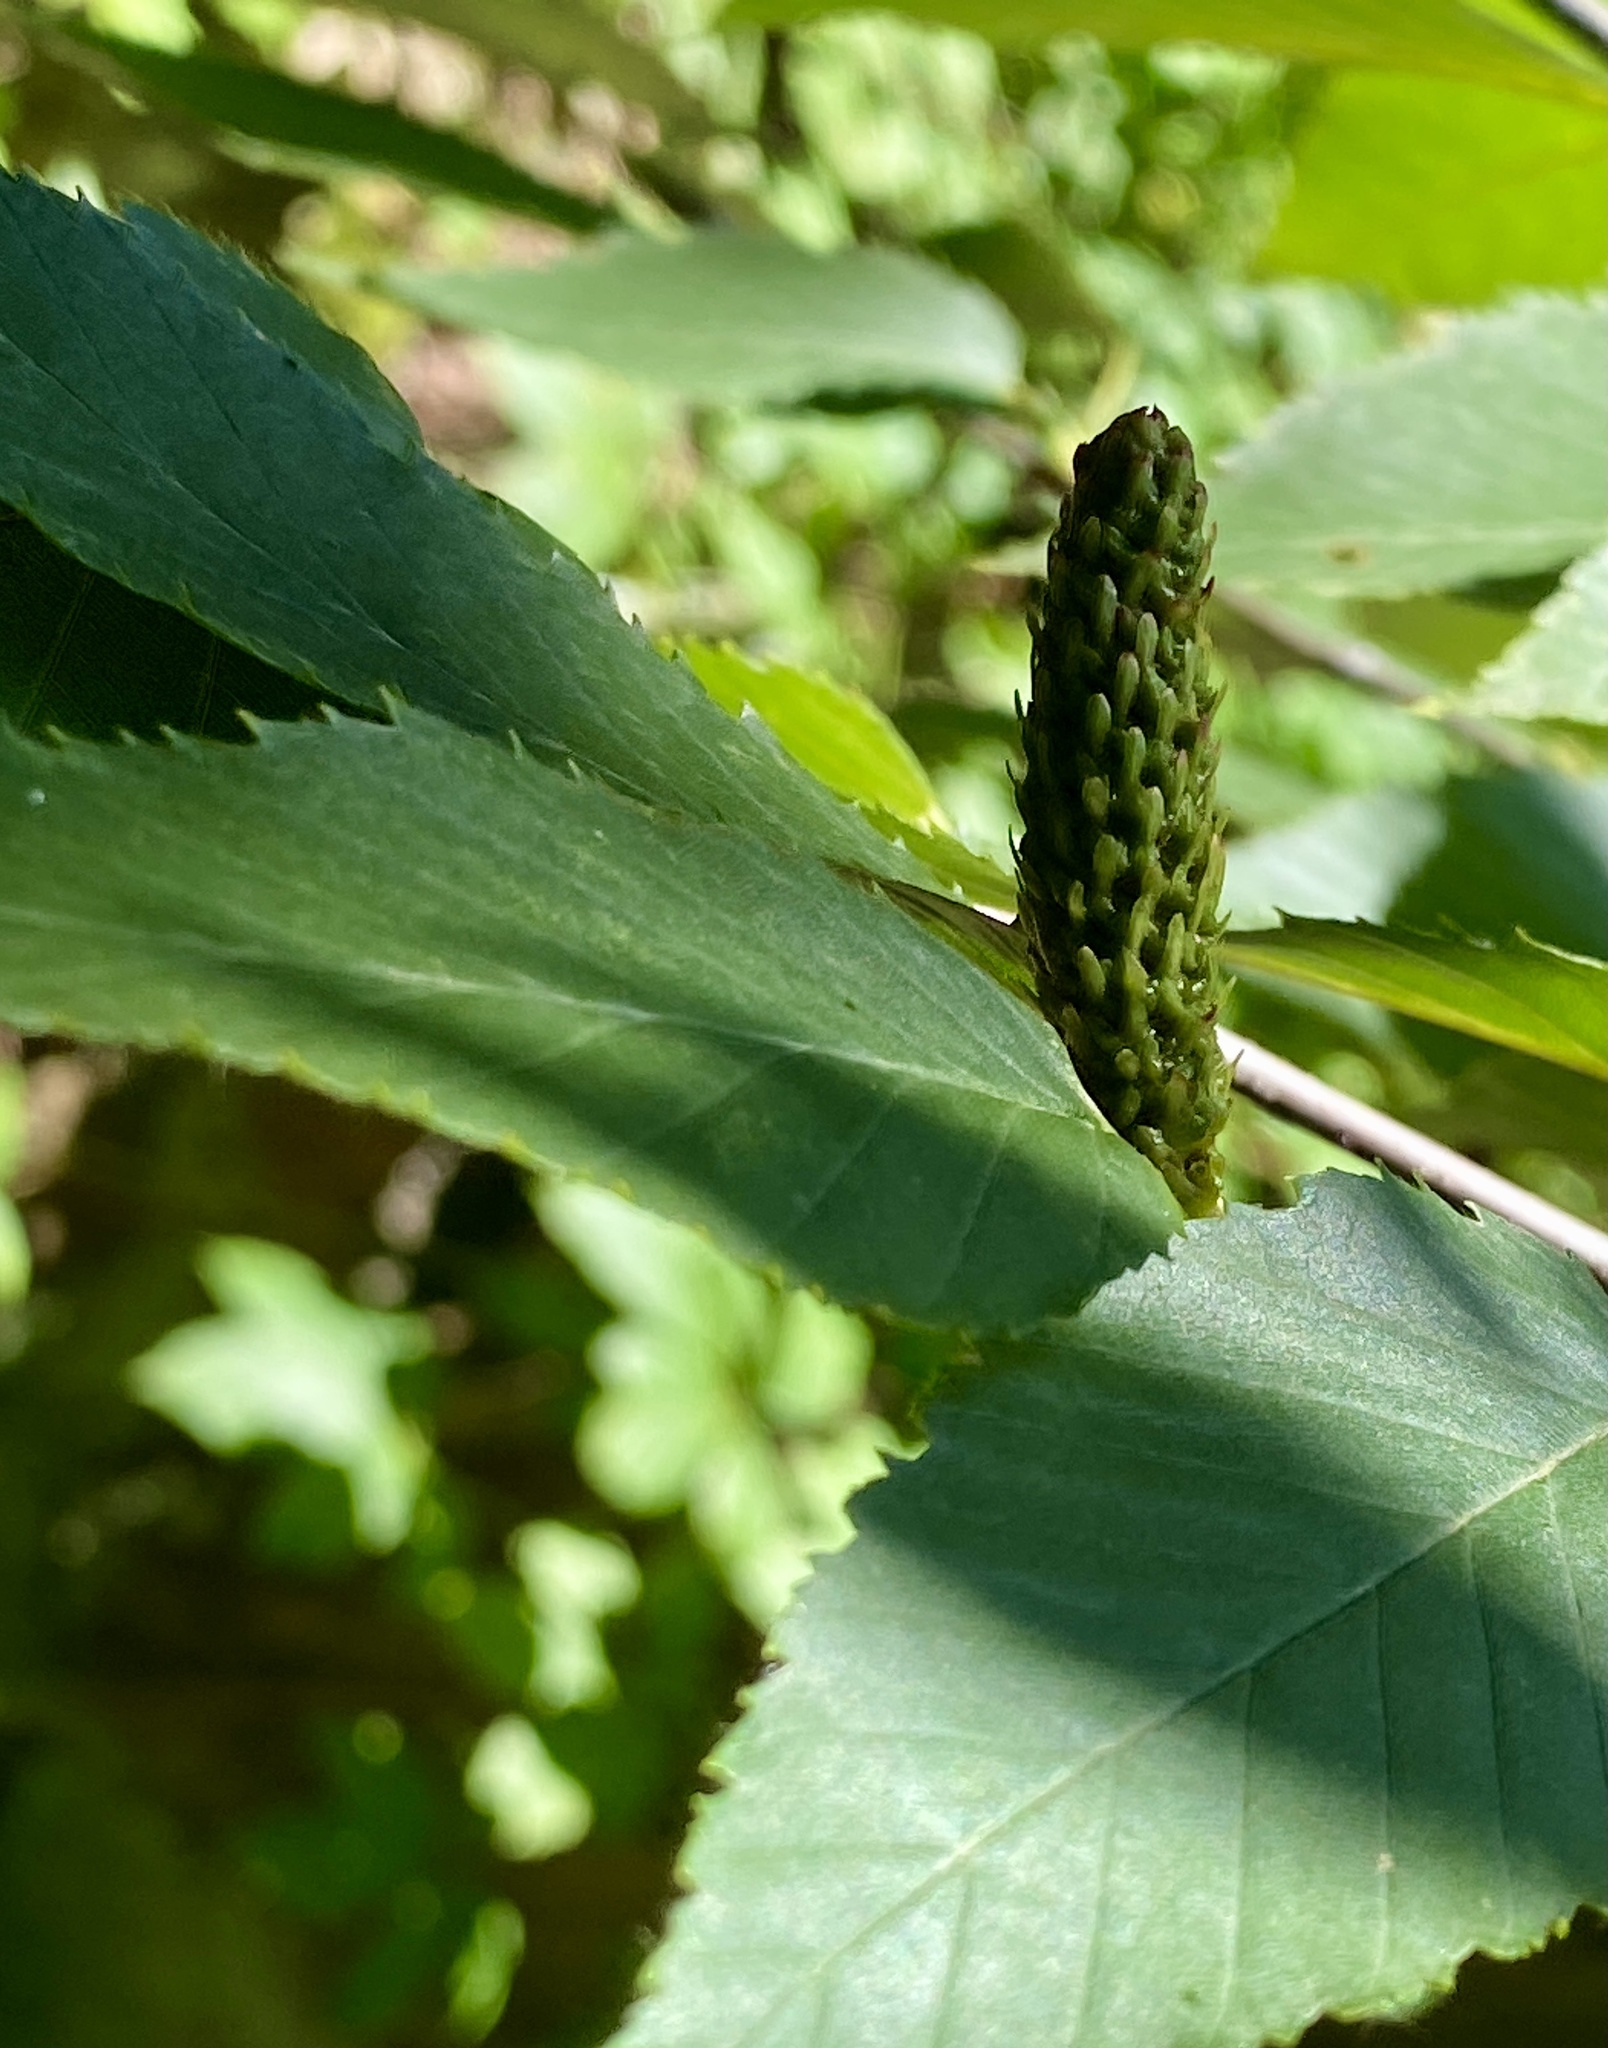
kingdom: Plantae
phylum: Tracheophyta
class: Magnoliopsida
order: Fagales
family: Betulaceae
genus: Betula
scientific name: Betula lenta
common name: Black birch
